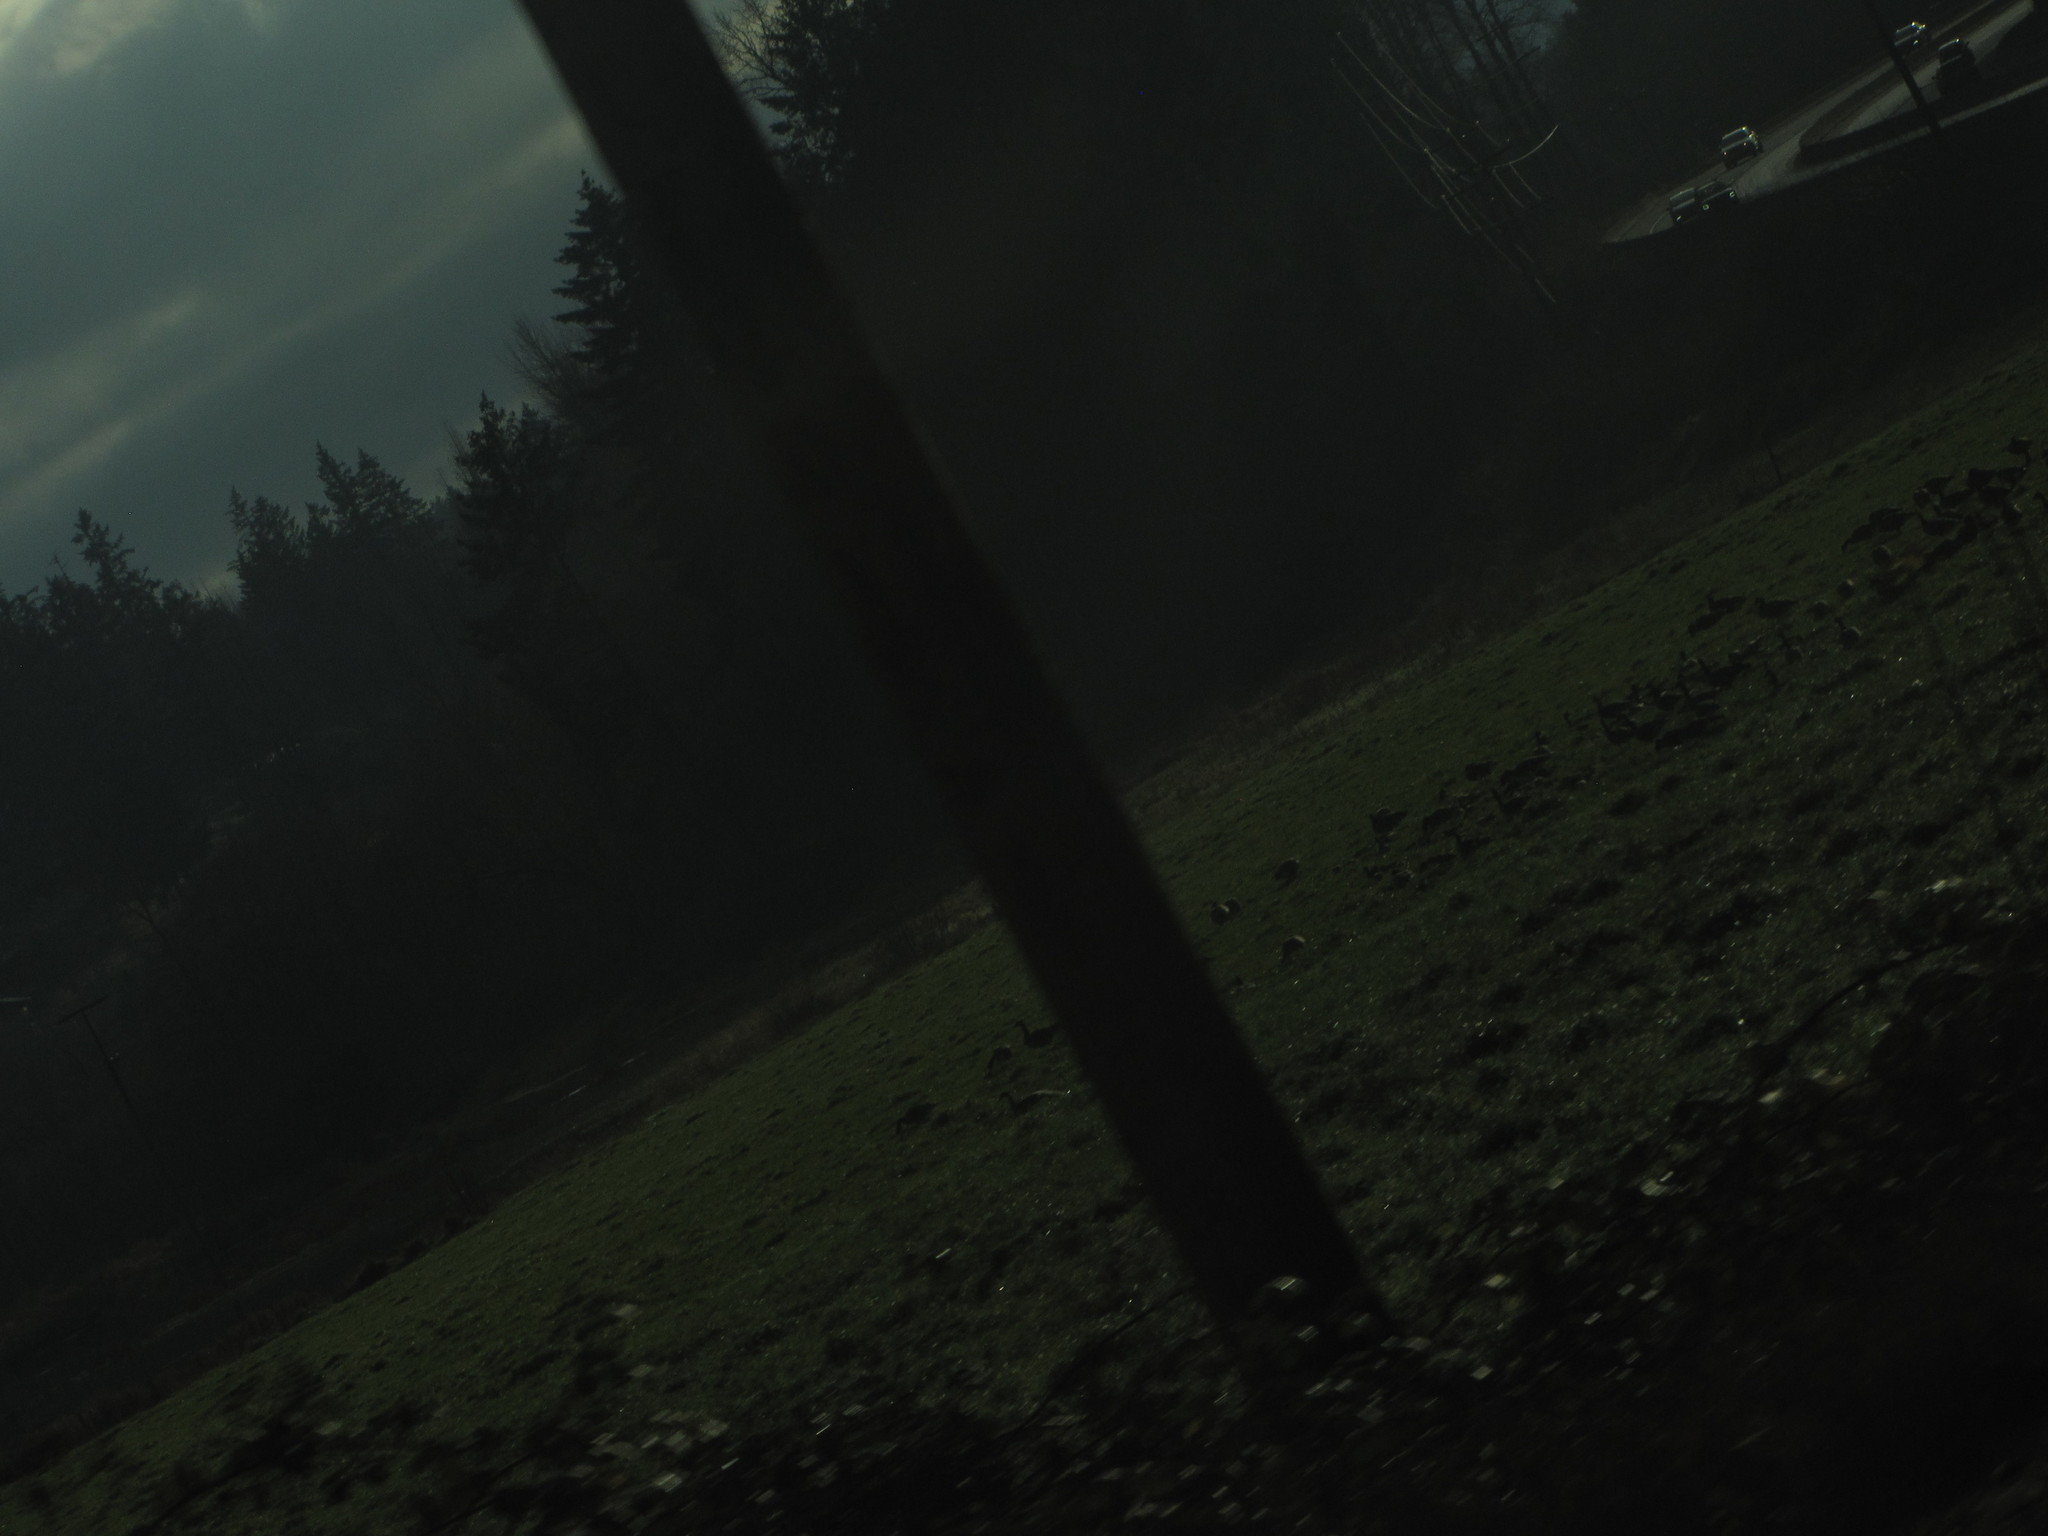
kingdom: Animalia
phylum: Chordata
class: Aves
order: Anseriformes
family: Anatidae
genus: Branta
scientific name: Branta canadensis
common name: Canada goose
